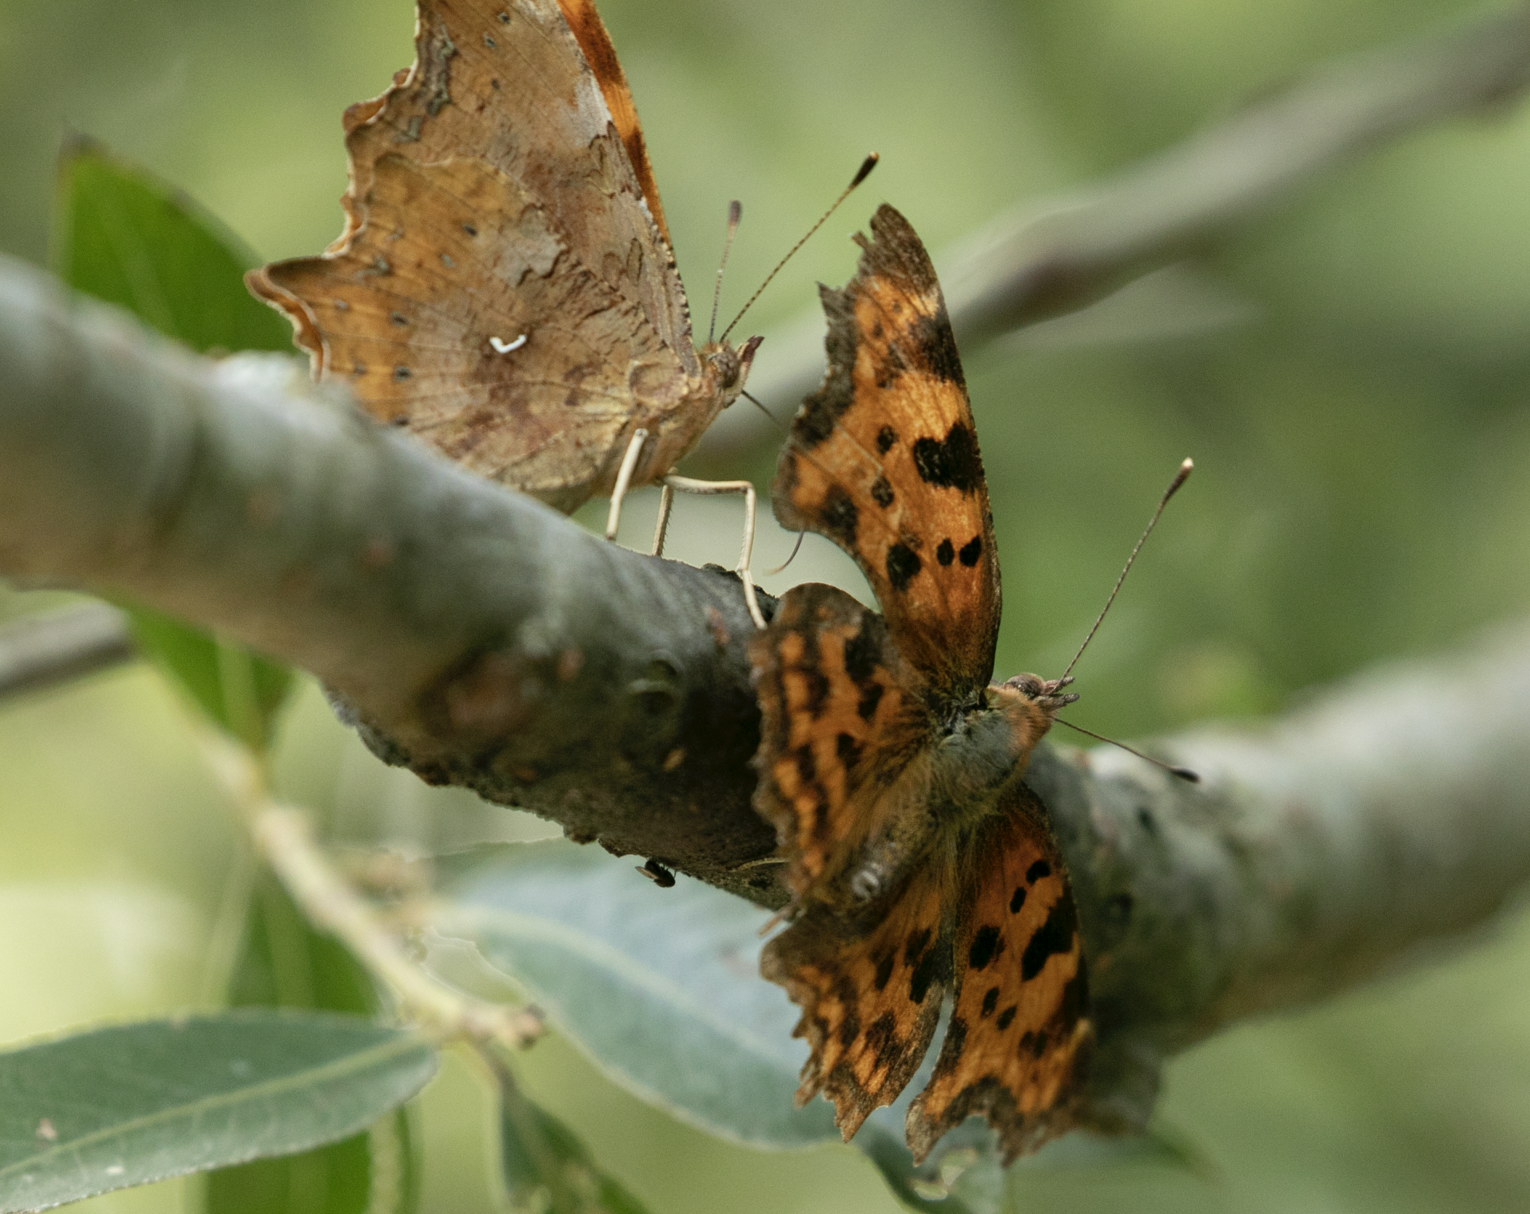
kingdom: Animalia
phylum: Arthropoda
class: Insecta
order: Lepidoptera
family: Nymphalidae
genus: Polygonia
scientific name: Polygonia c-album
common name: Comma
